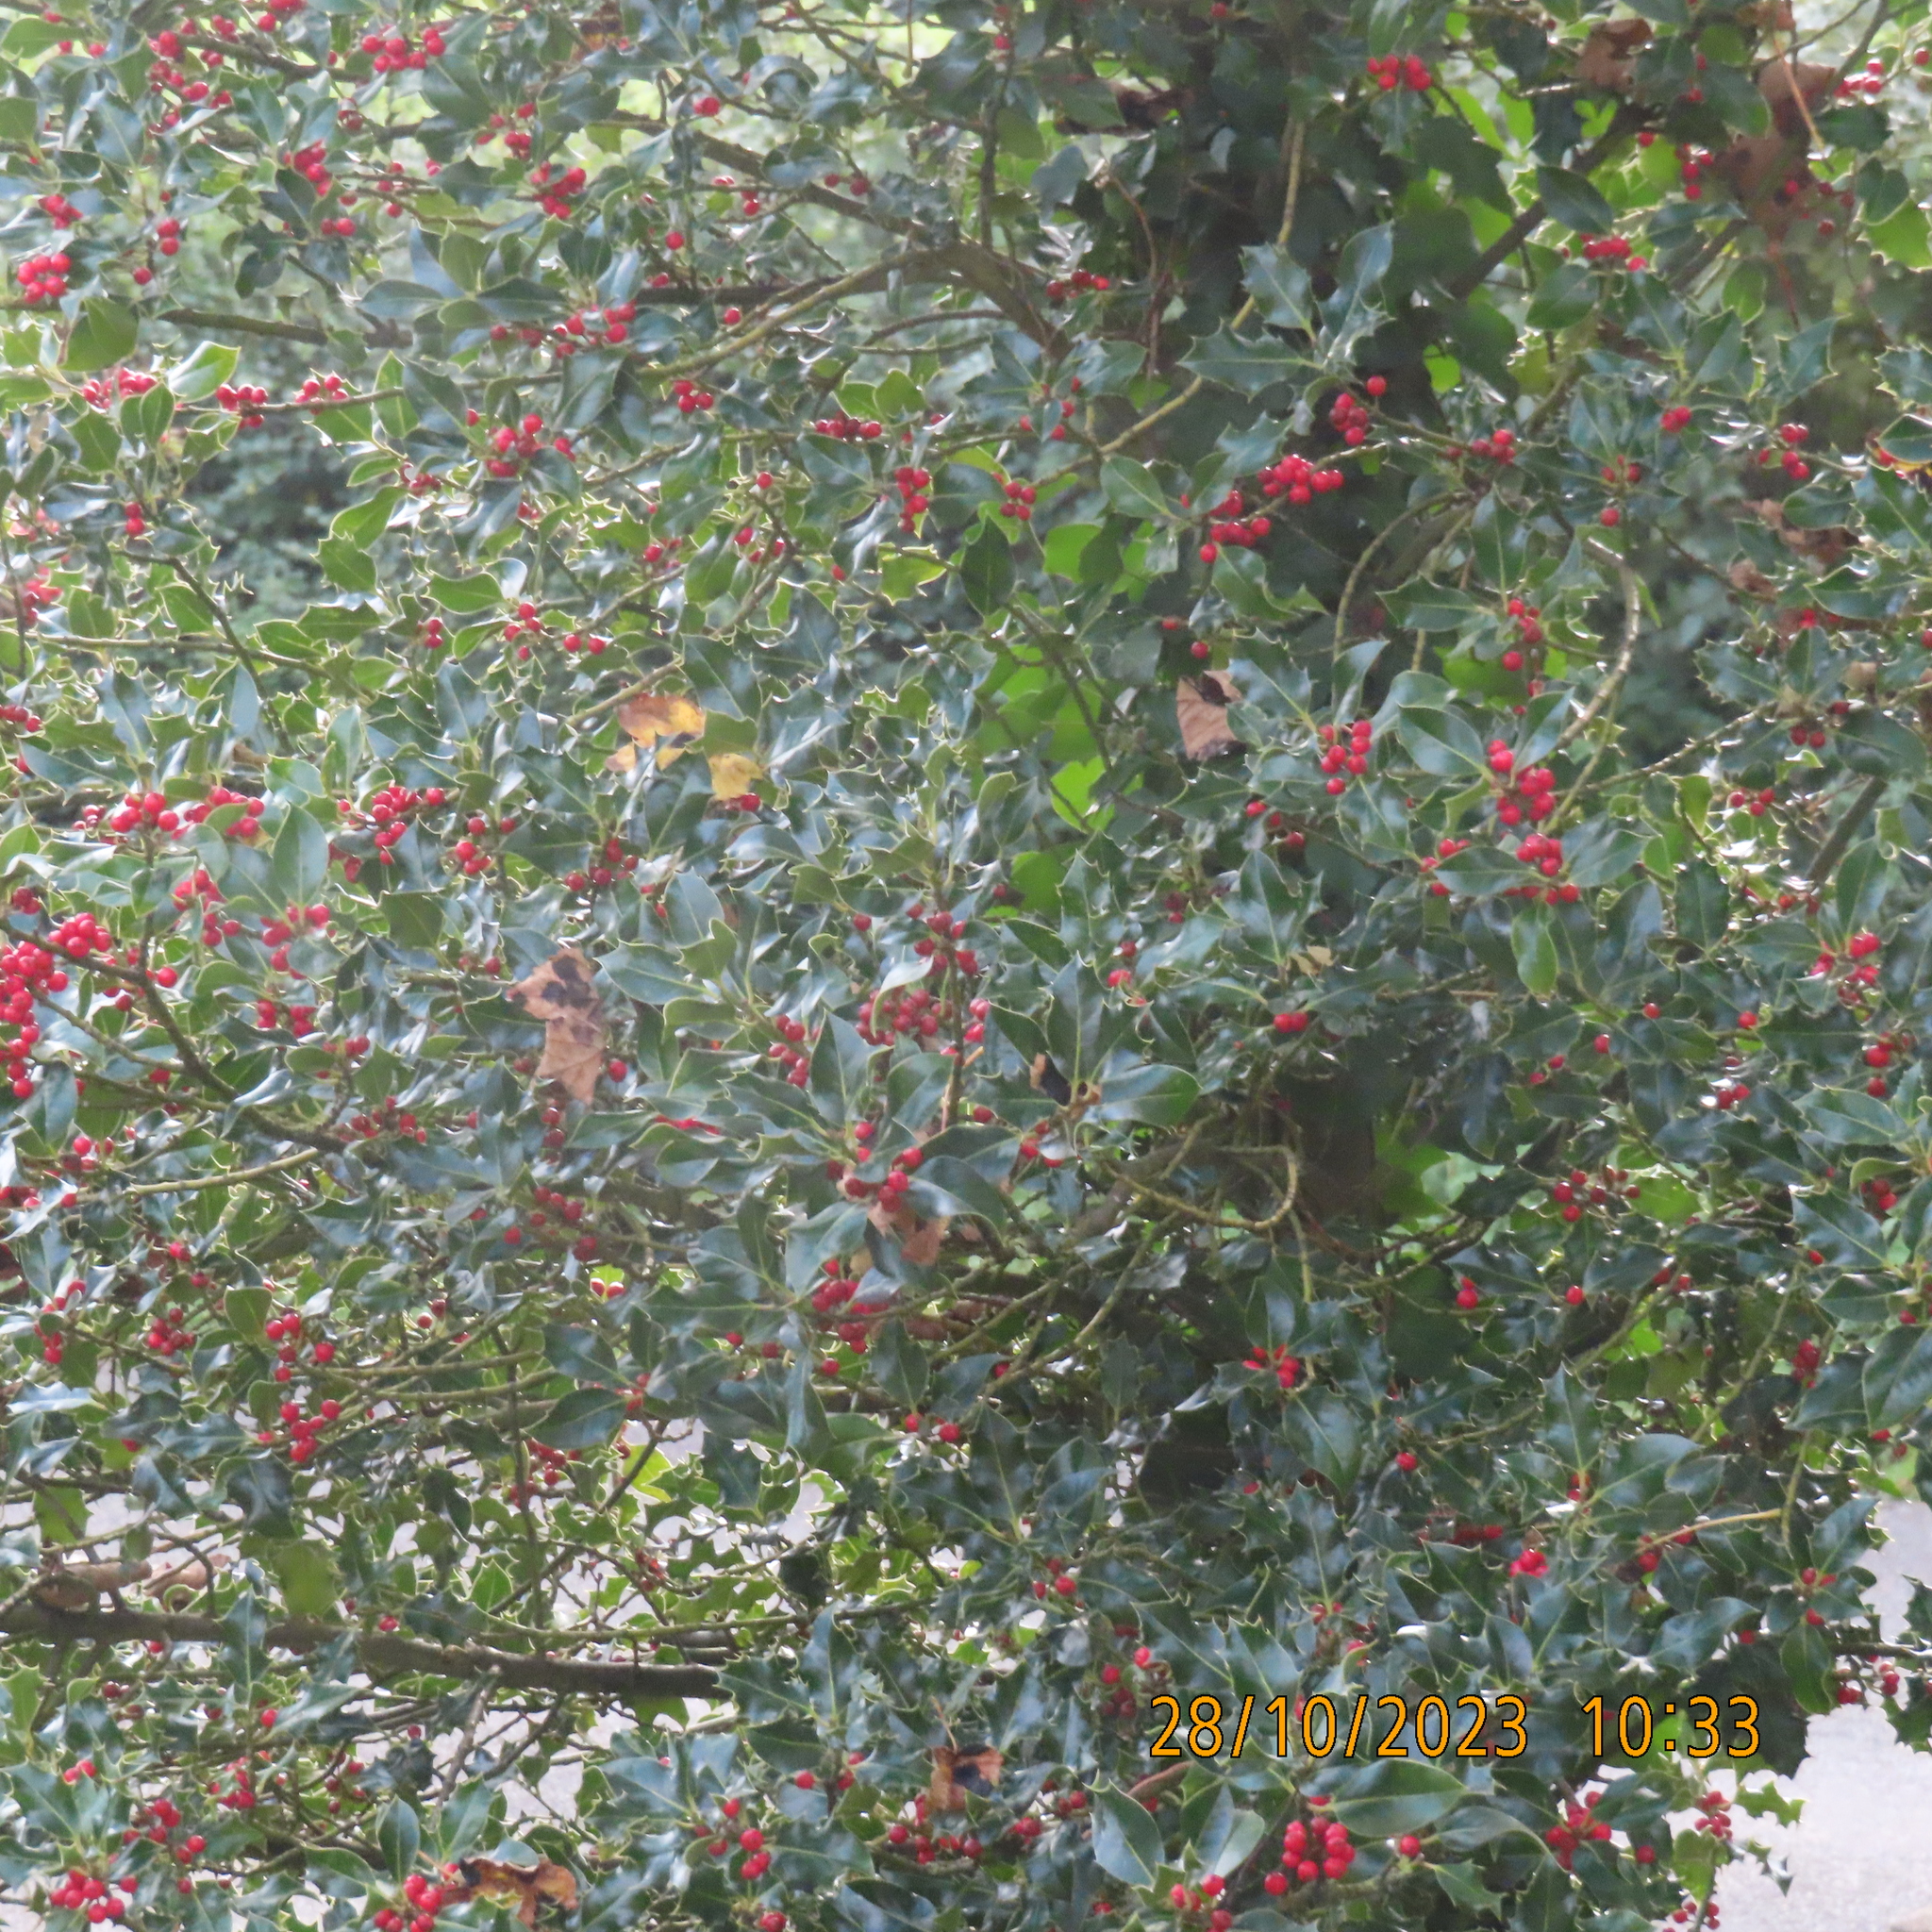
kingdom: Plantae
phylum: Tracheophyta
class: Magnoliopsida
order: Aquifoliales
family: Aquifoliaceae
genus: Ilex
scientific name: Ilex aquifolium
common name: English holly
